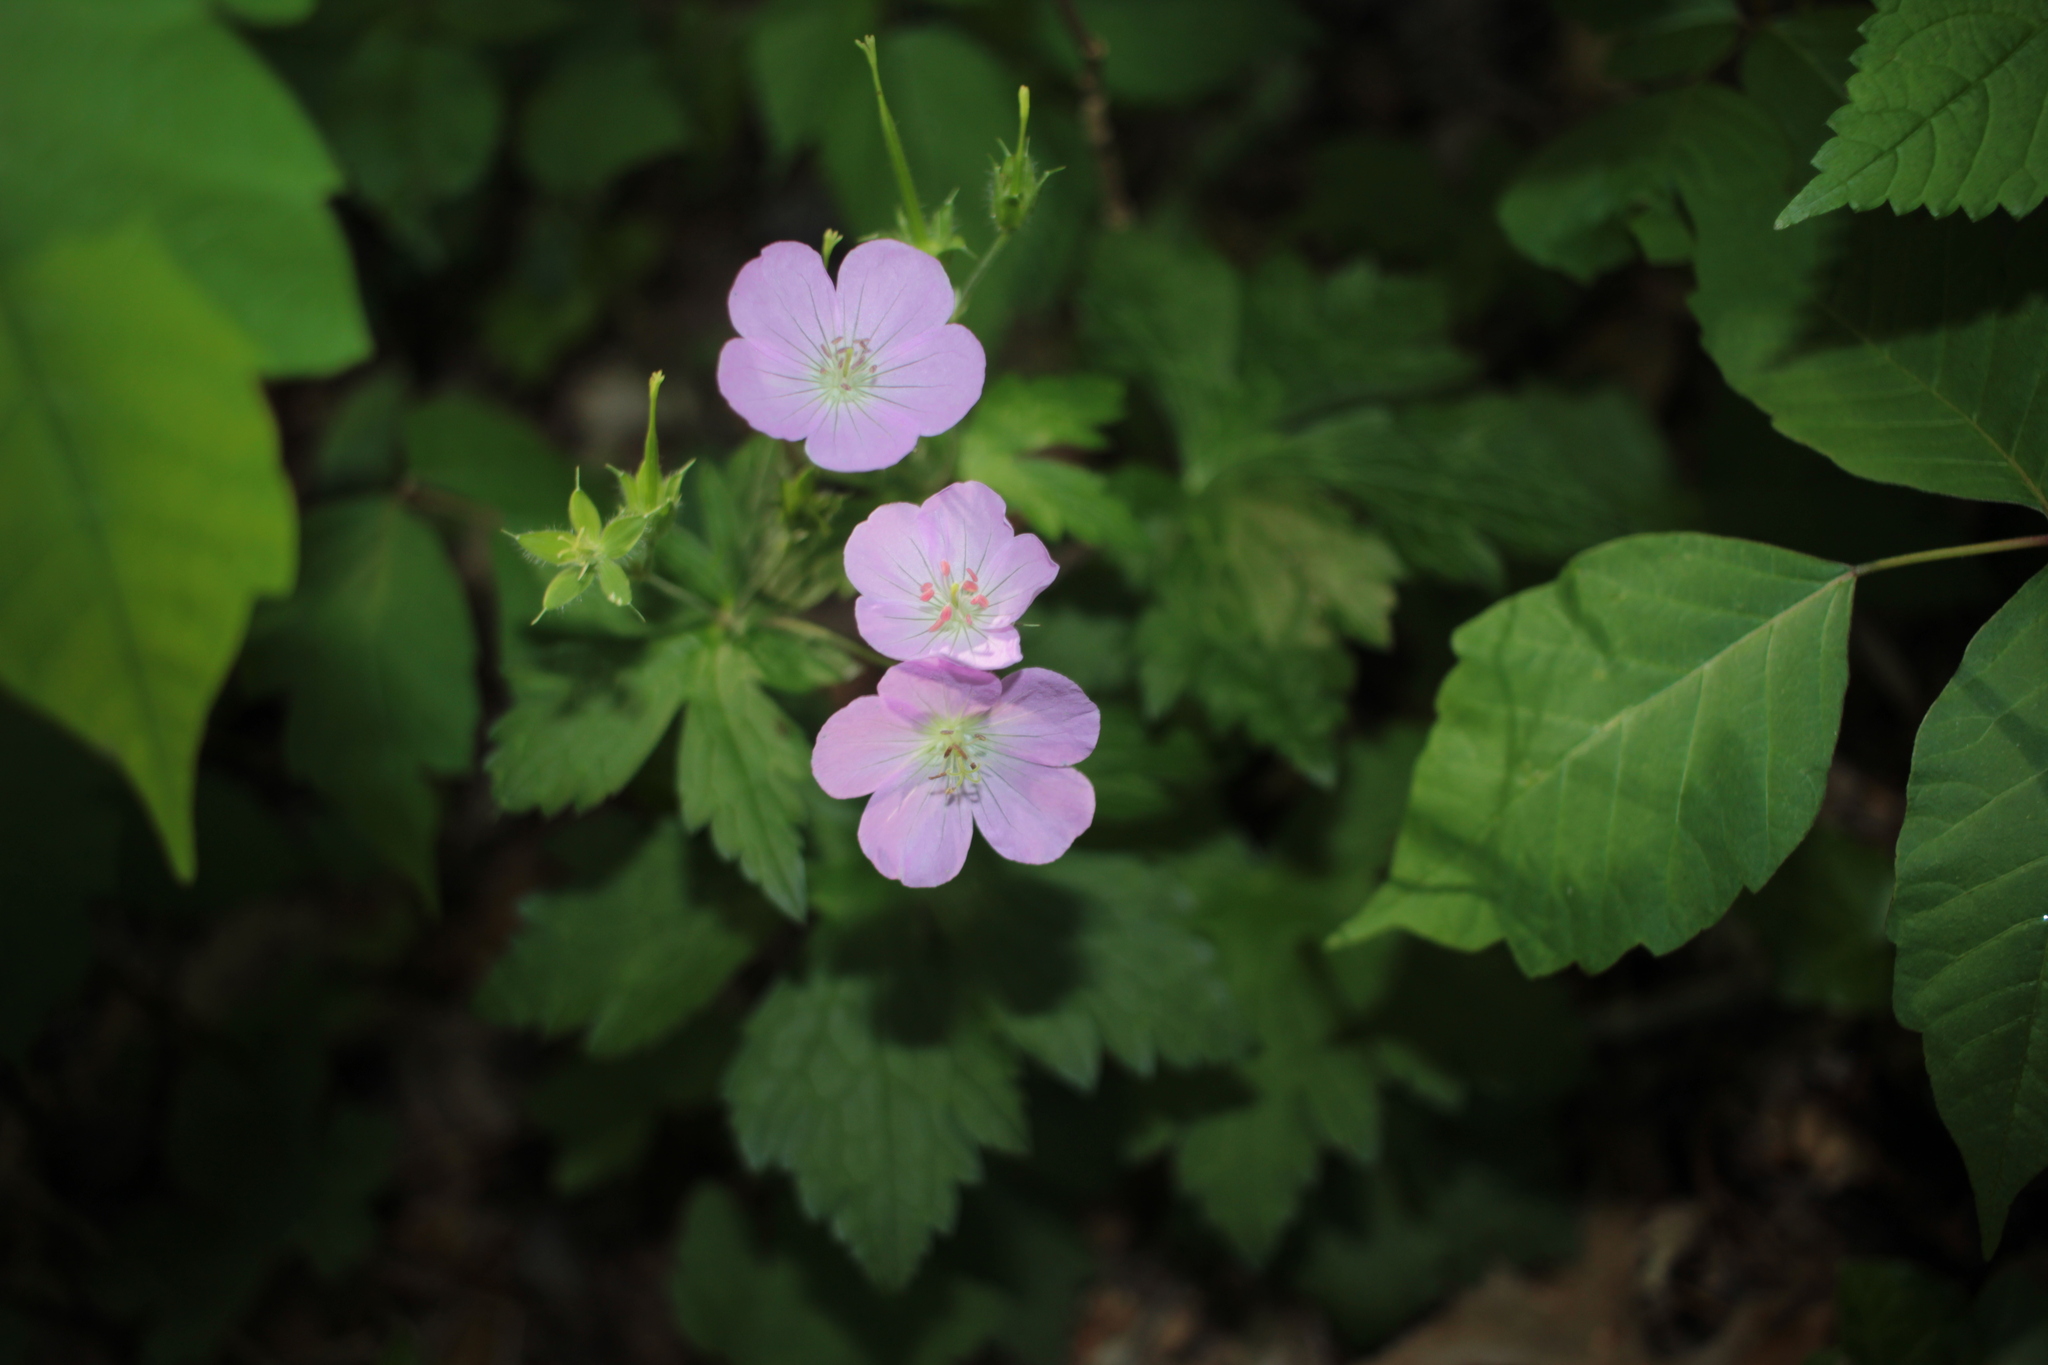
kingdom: Plantae
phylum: Tracheophyta
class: Magnoliopsida
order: Geraniales
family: Geraniaceae
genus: Geranium
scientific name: Geranium maculatum
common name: Spotted geranium
